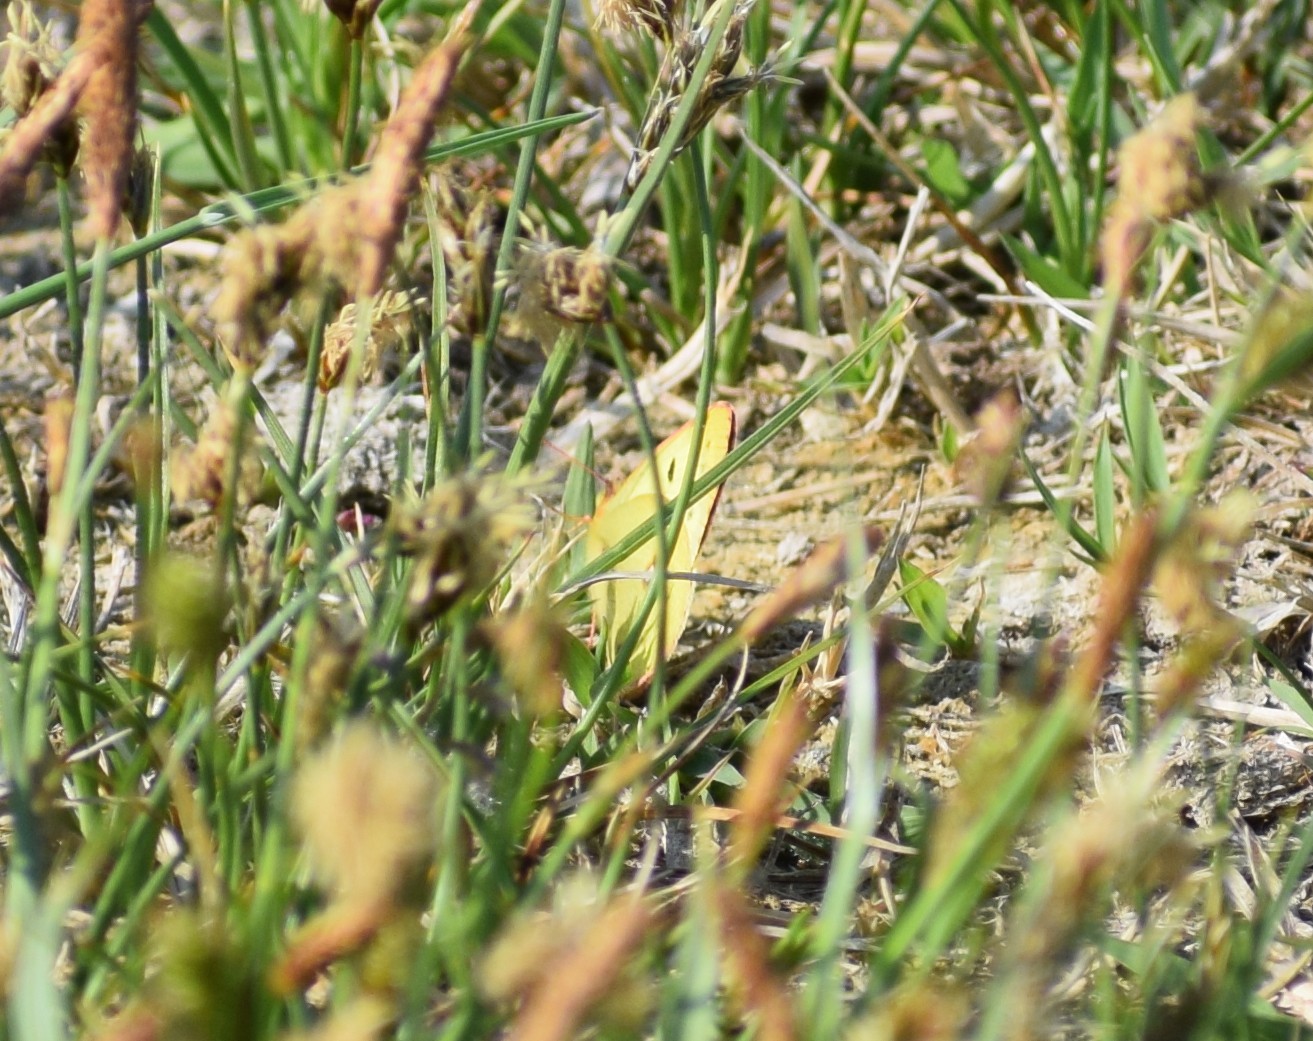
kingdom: Animalia
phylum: Arthropoda
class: Insecta
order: Lepidoptera
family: Pieridae
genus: Colias
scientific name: Colias
